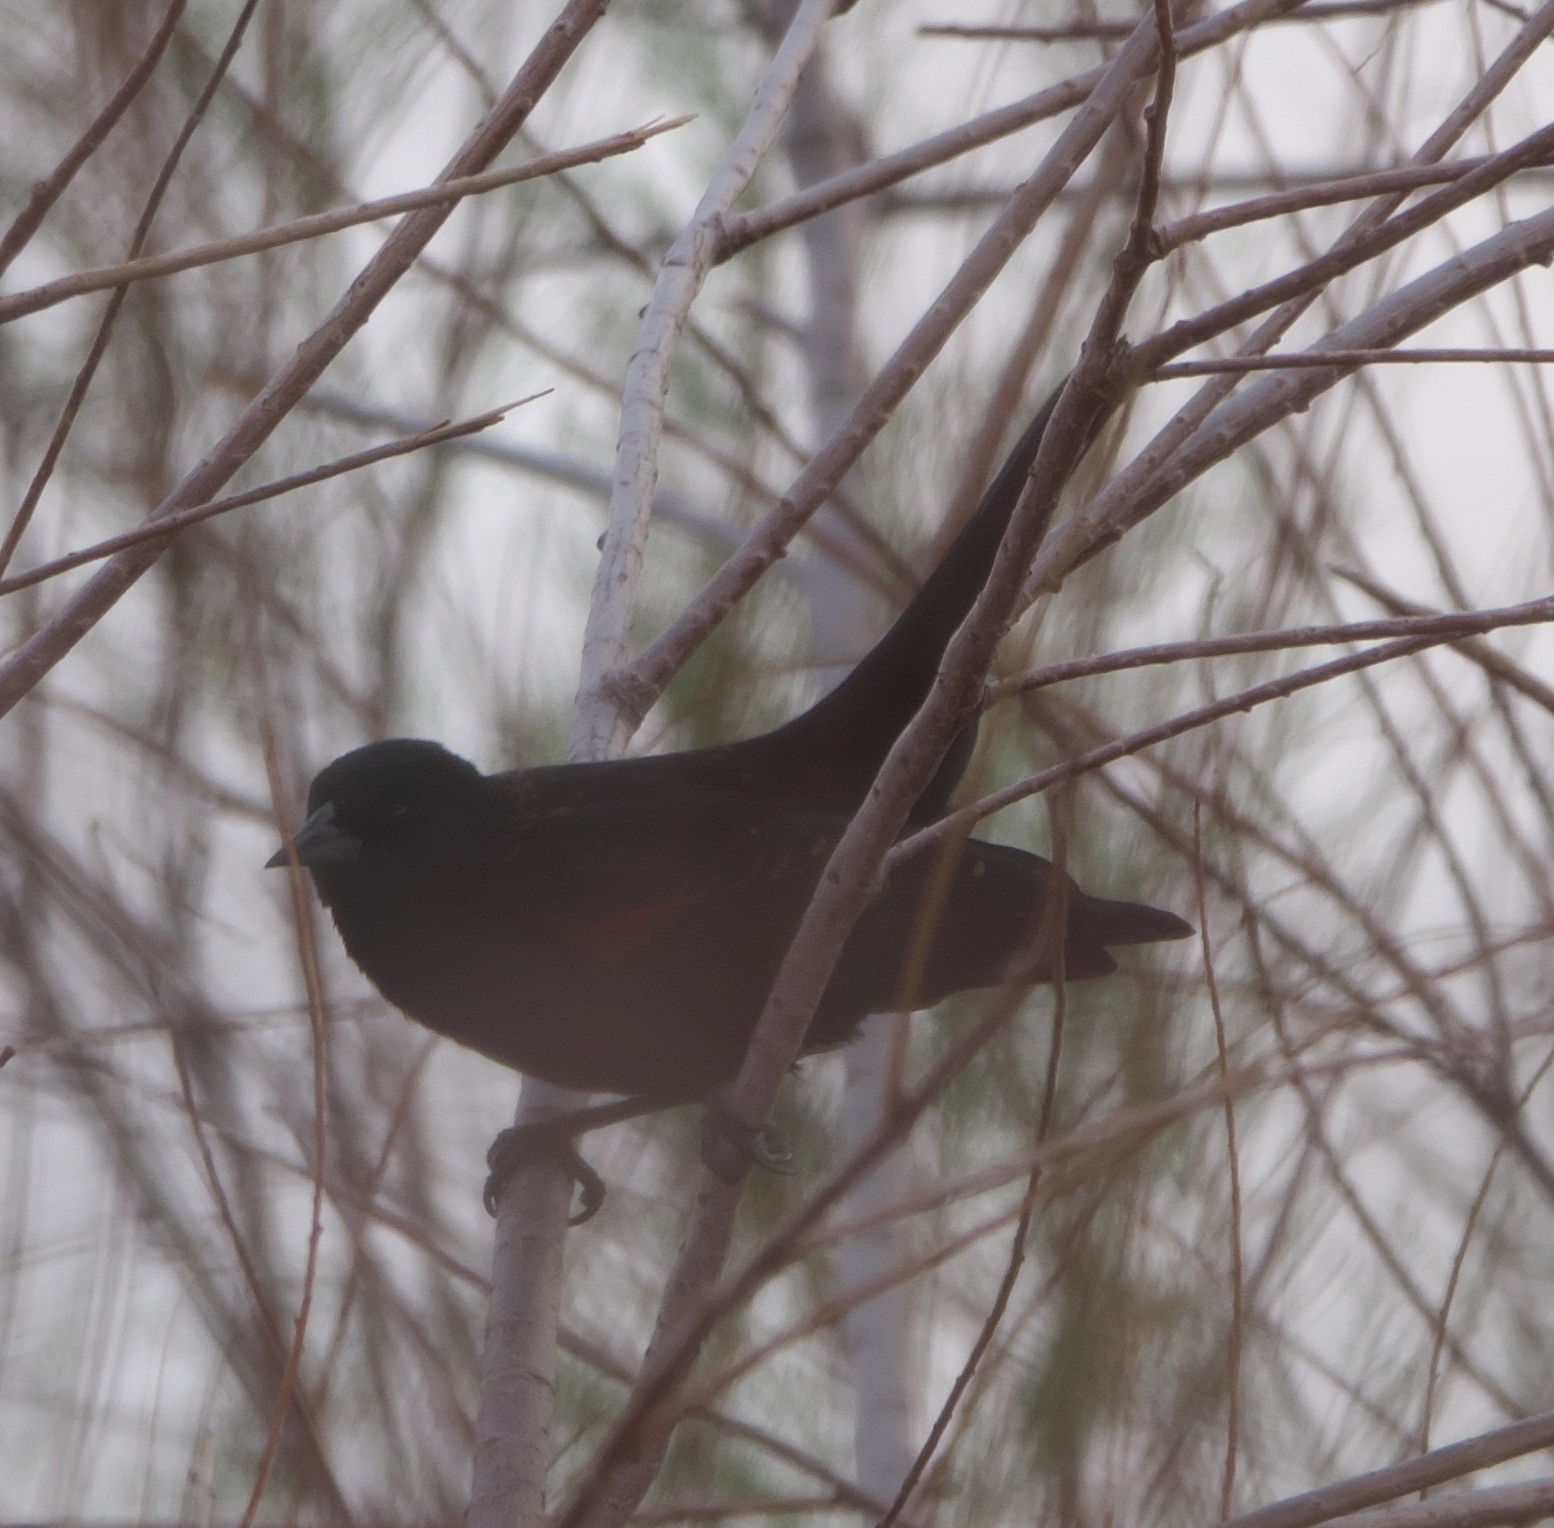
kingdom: Animalia
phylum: Chordata
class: Aves
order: Passeriformes
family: Icteridae
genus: Agelaius
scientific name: Agelaius phoeniceus
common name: Red-winged blackbird
